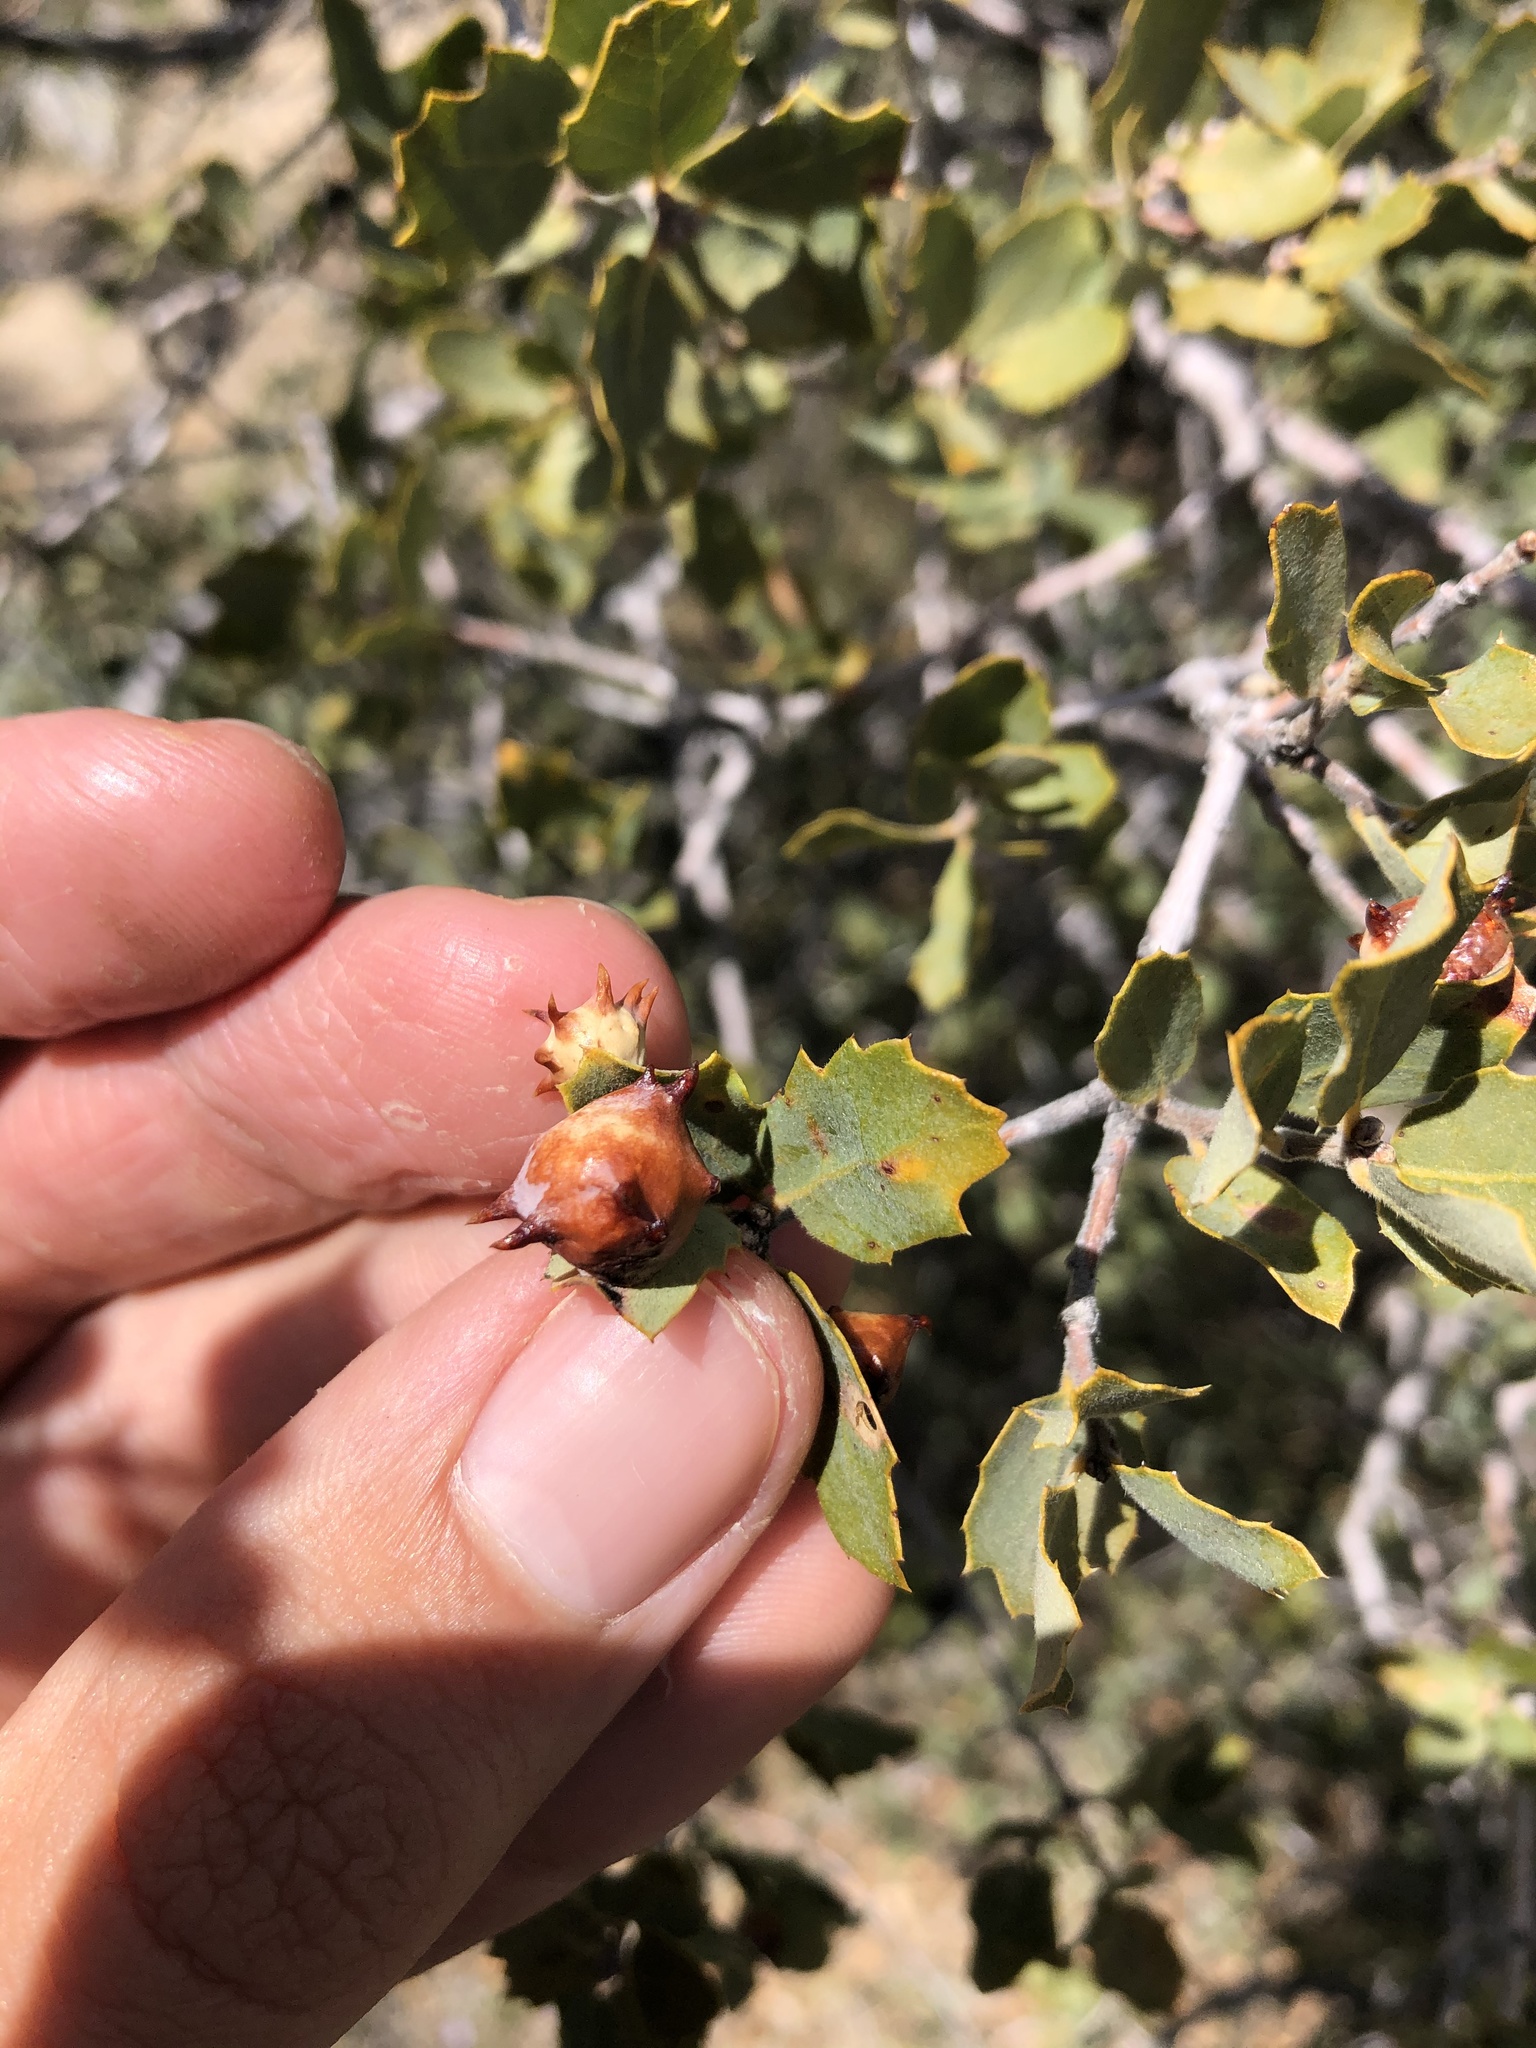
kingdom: Animalia
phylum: Arthropoda
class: Insecta
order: Hymenoptera
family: Cynipidae
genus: Cynips
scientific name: Cynips douglasi
